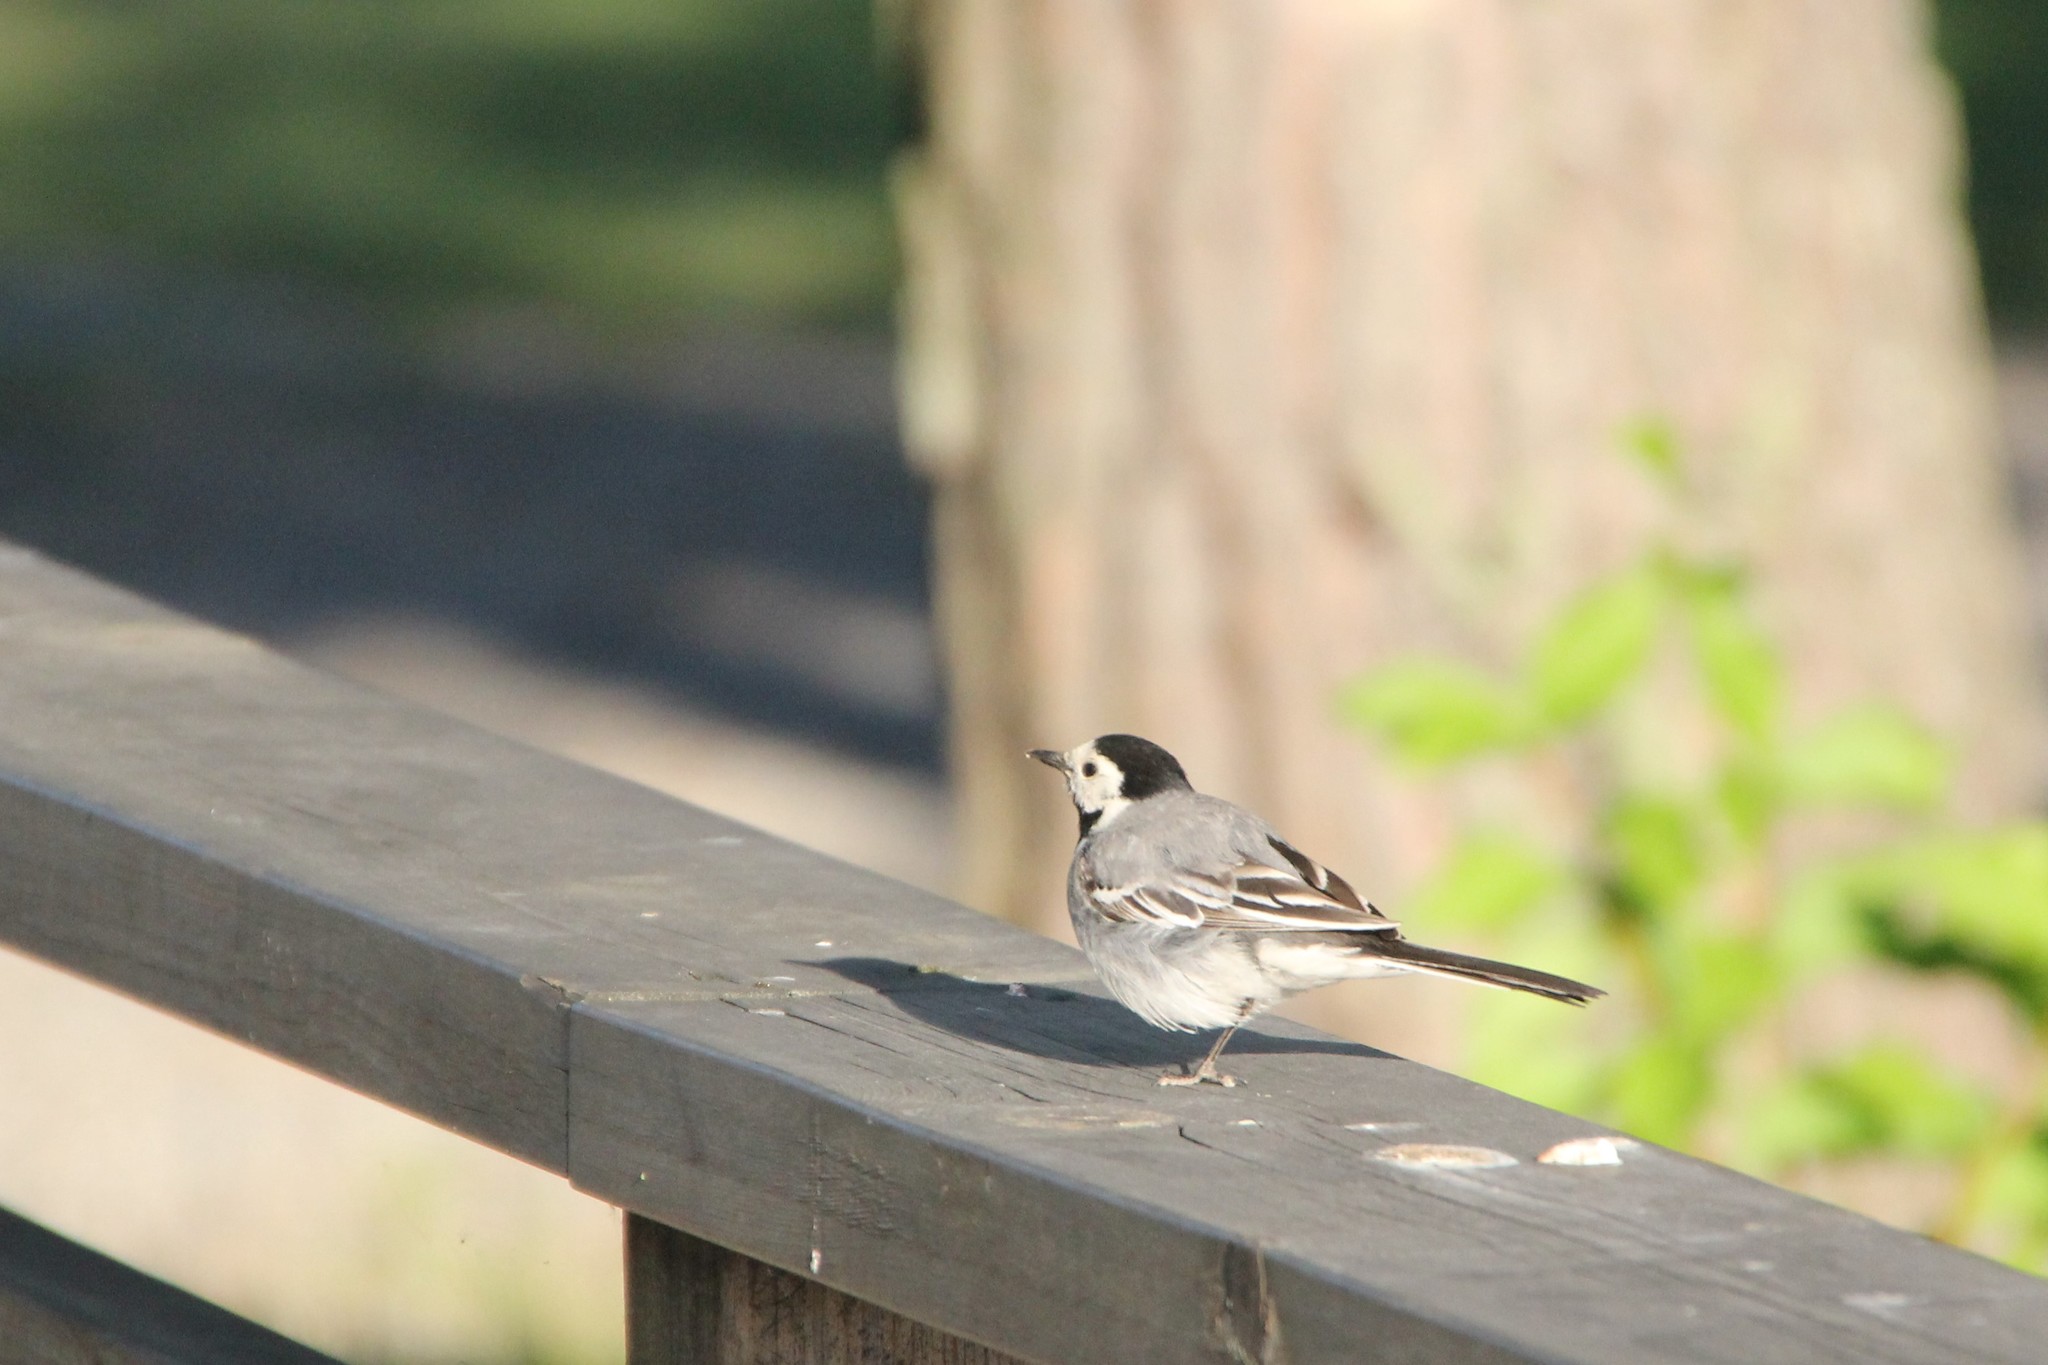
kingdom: Animalia
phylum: Chordata
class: Aves
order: Passeriformes
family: Motacillidae
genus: Motacilla
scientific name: Motacilla alba
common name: White wagtail
